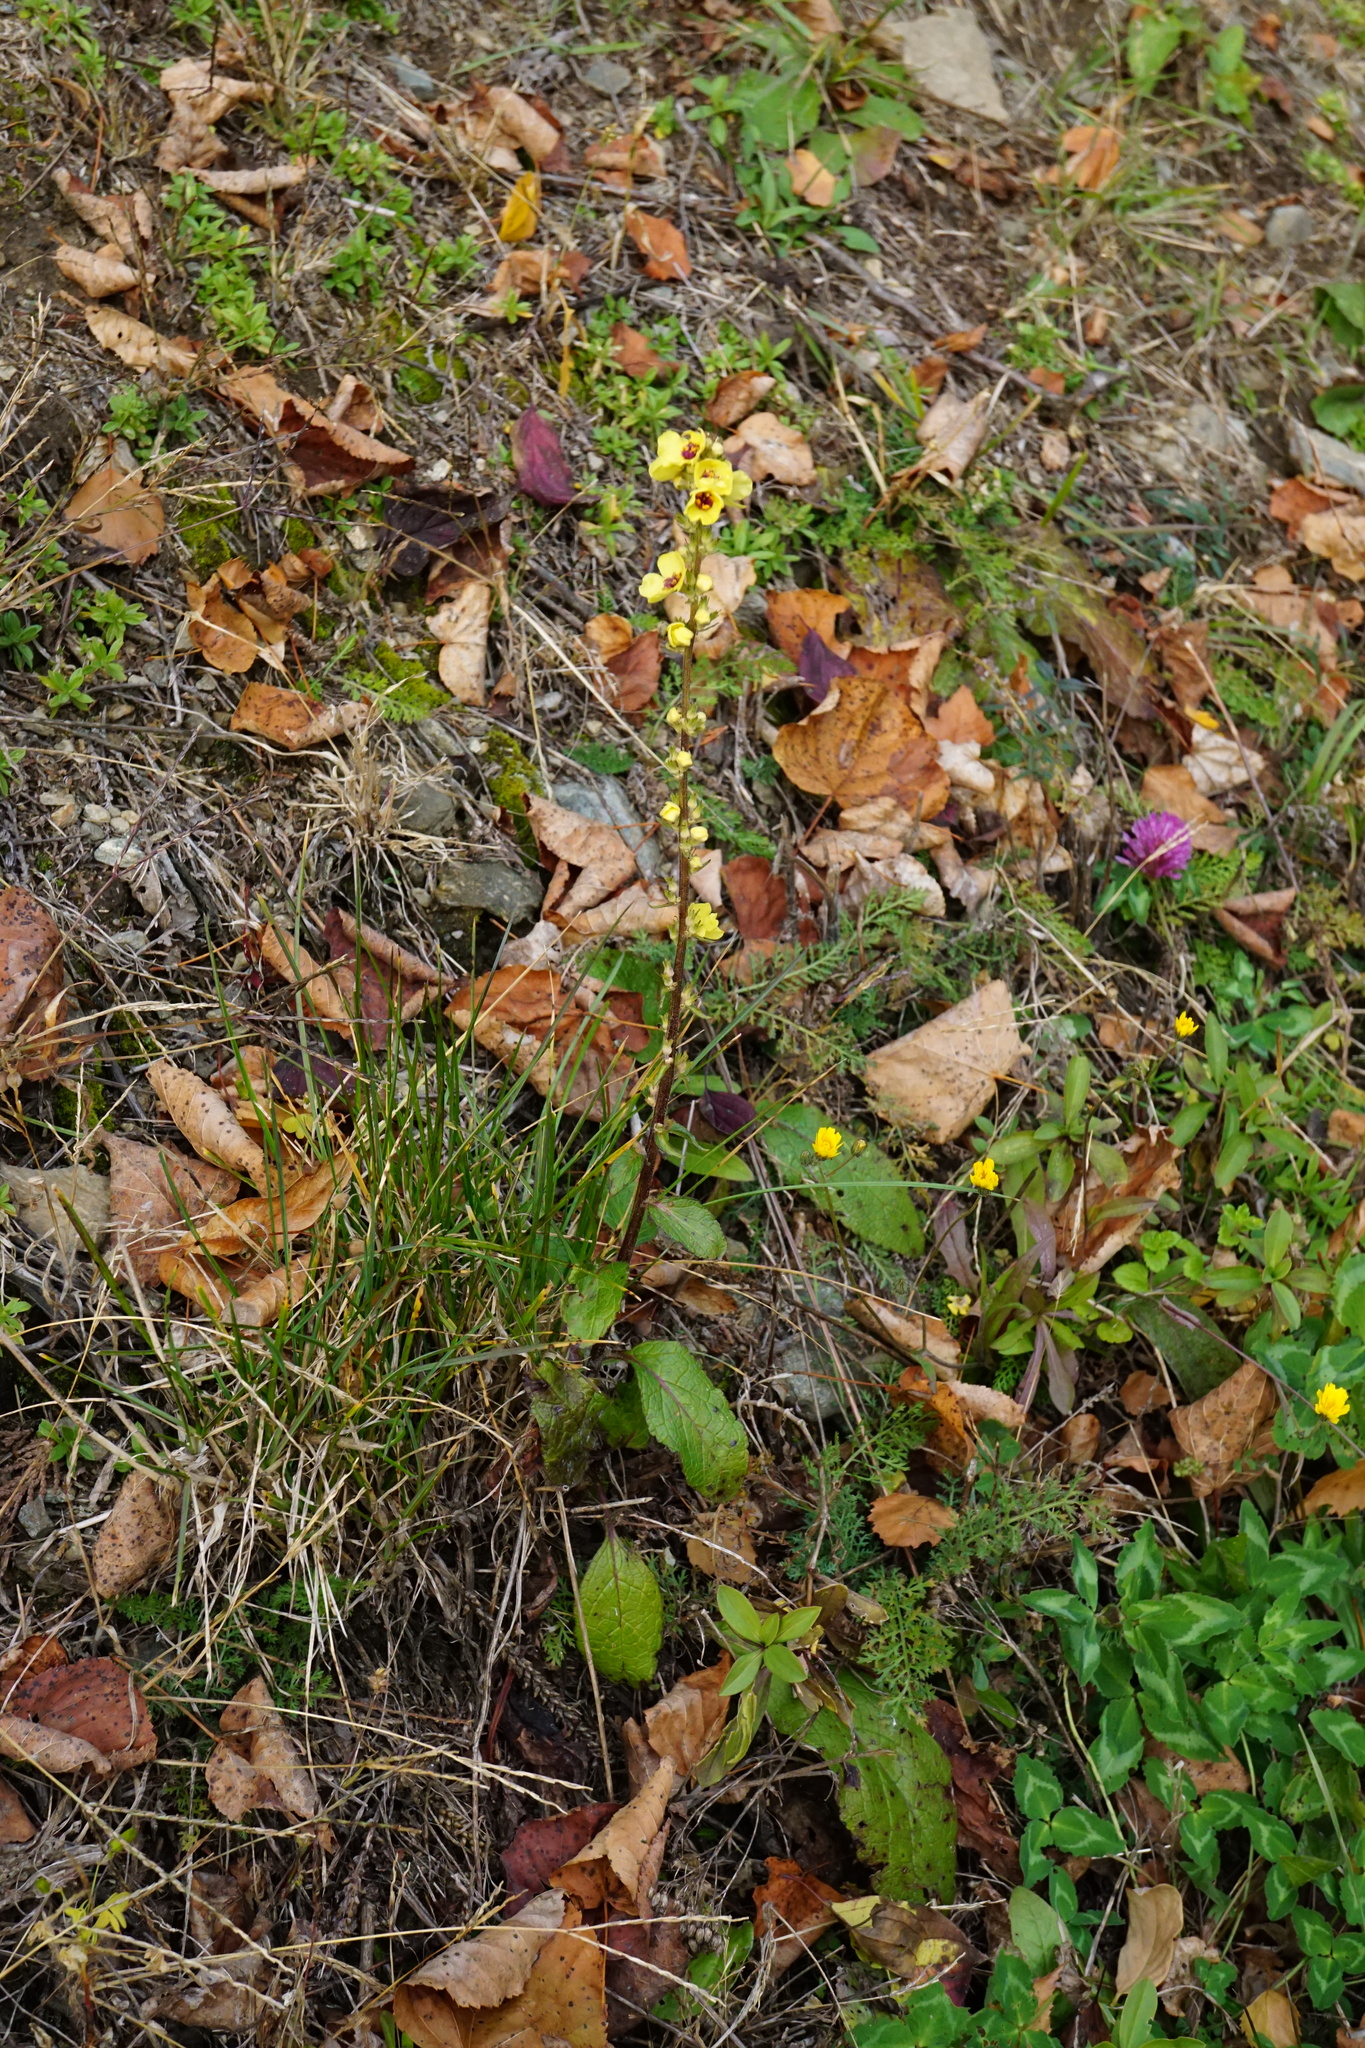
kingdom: Plantae
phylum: Tracheophyta
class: Magnoliopsida
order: Lamiales
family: Scrophulariaceae
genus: Verbascum
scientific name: Verbascum chaixii
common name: Nettle-leaved mullein
